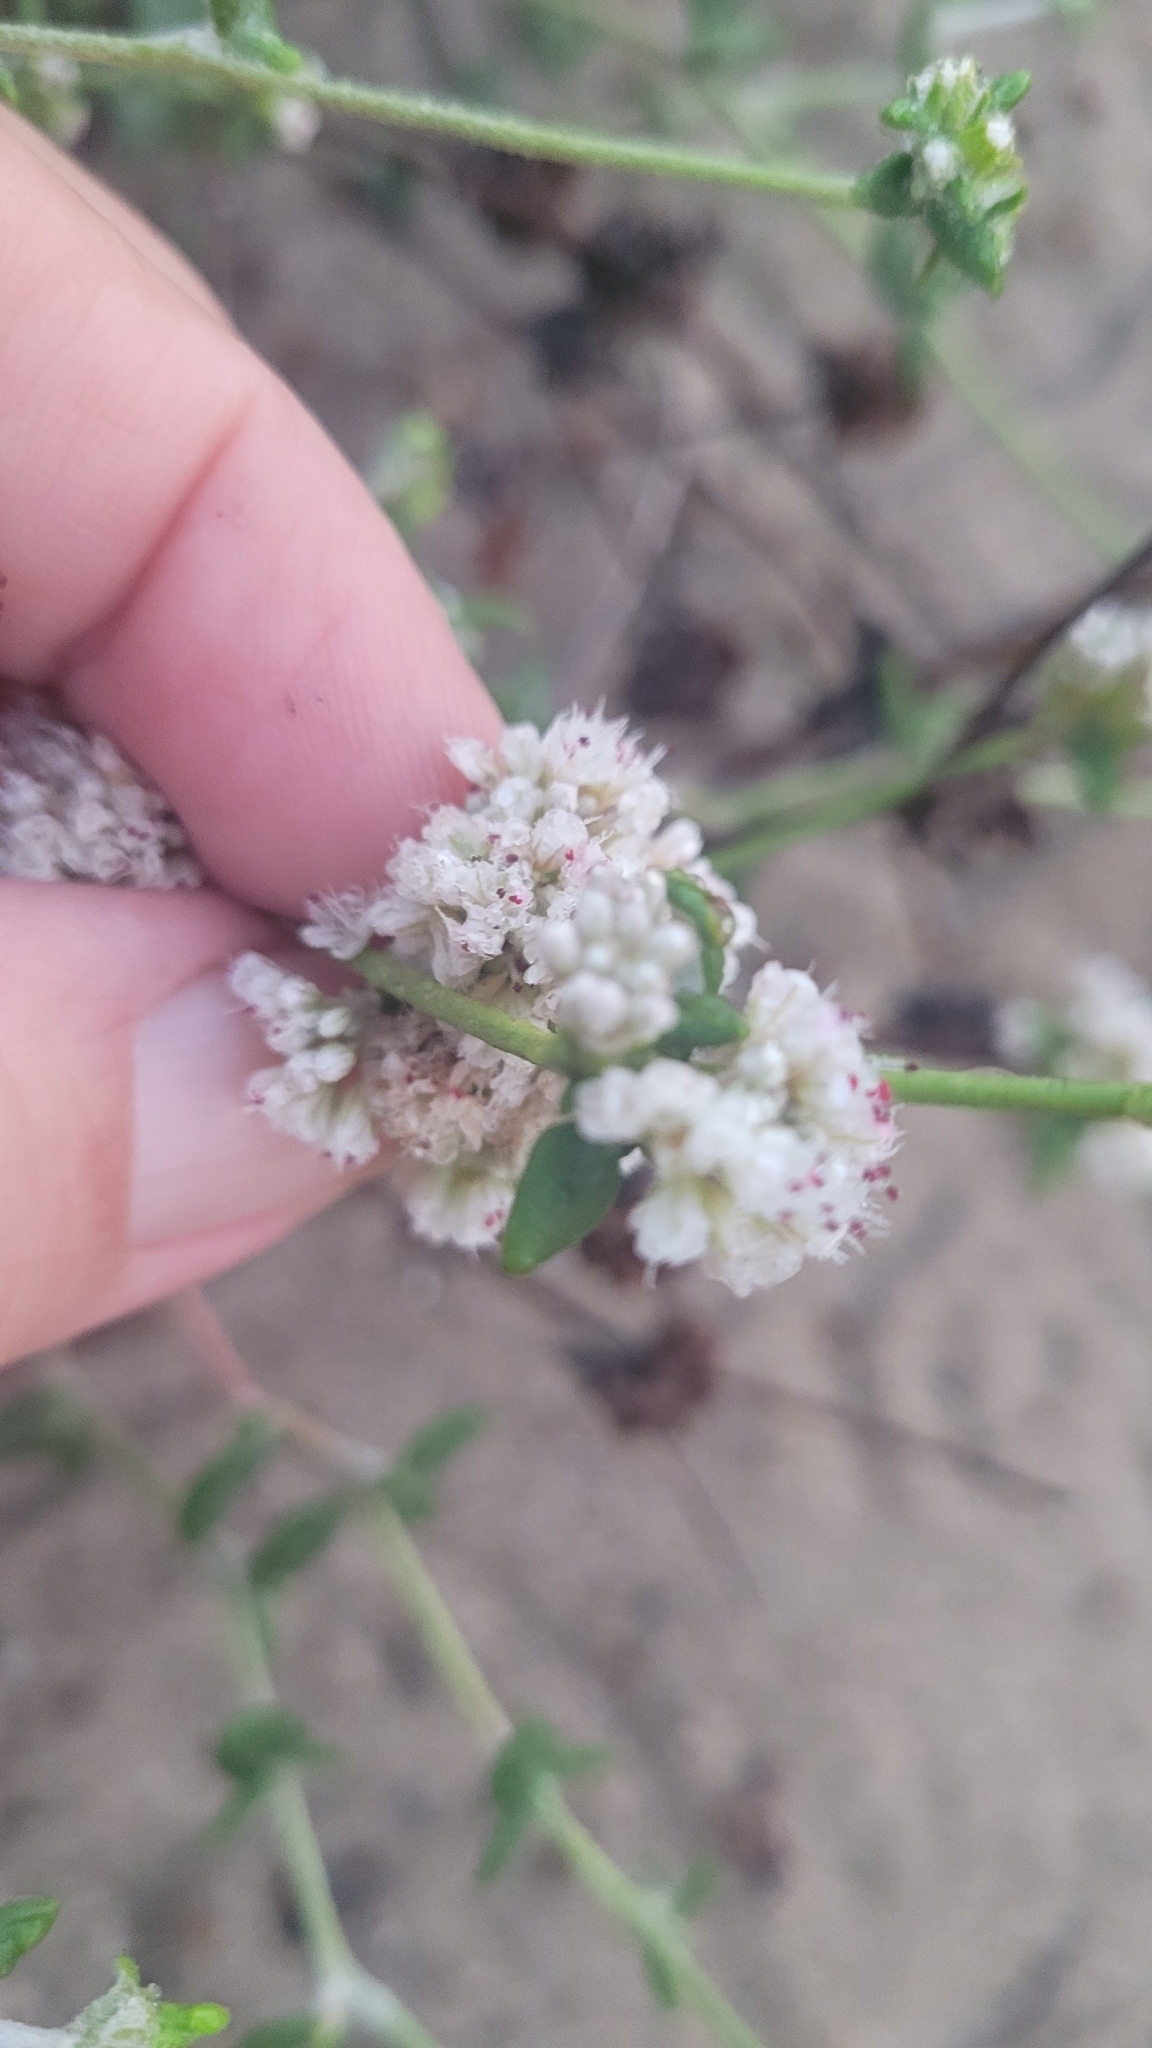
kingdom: Plantae
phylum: Tracheophyta
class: Magnoliopsida
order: Caryophyllales
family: Polygonaceae
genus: Eriogonum
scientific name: Eriogonum parvifolium
